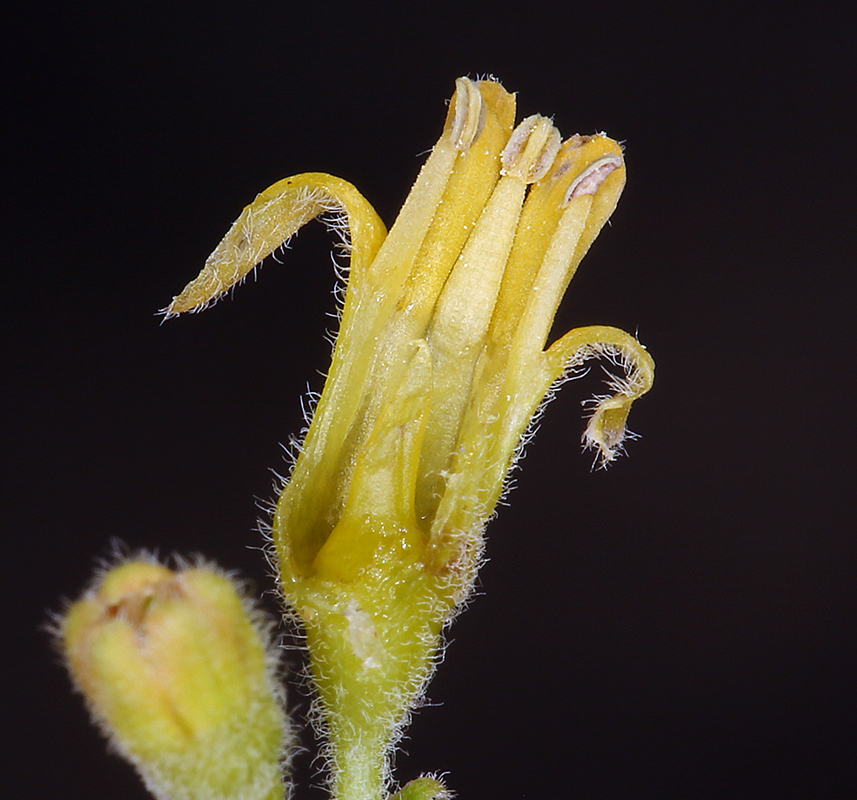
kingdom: Plantae
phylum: Tracheophyta
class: Magnoliopsida
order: Saxifragales
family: Grossulariaceae
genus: Ribes
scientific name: Ribes quercetorum
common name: Oak gooseberry
